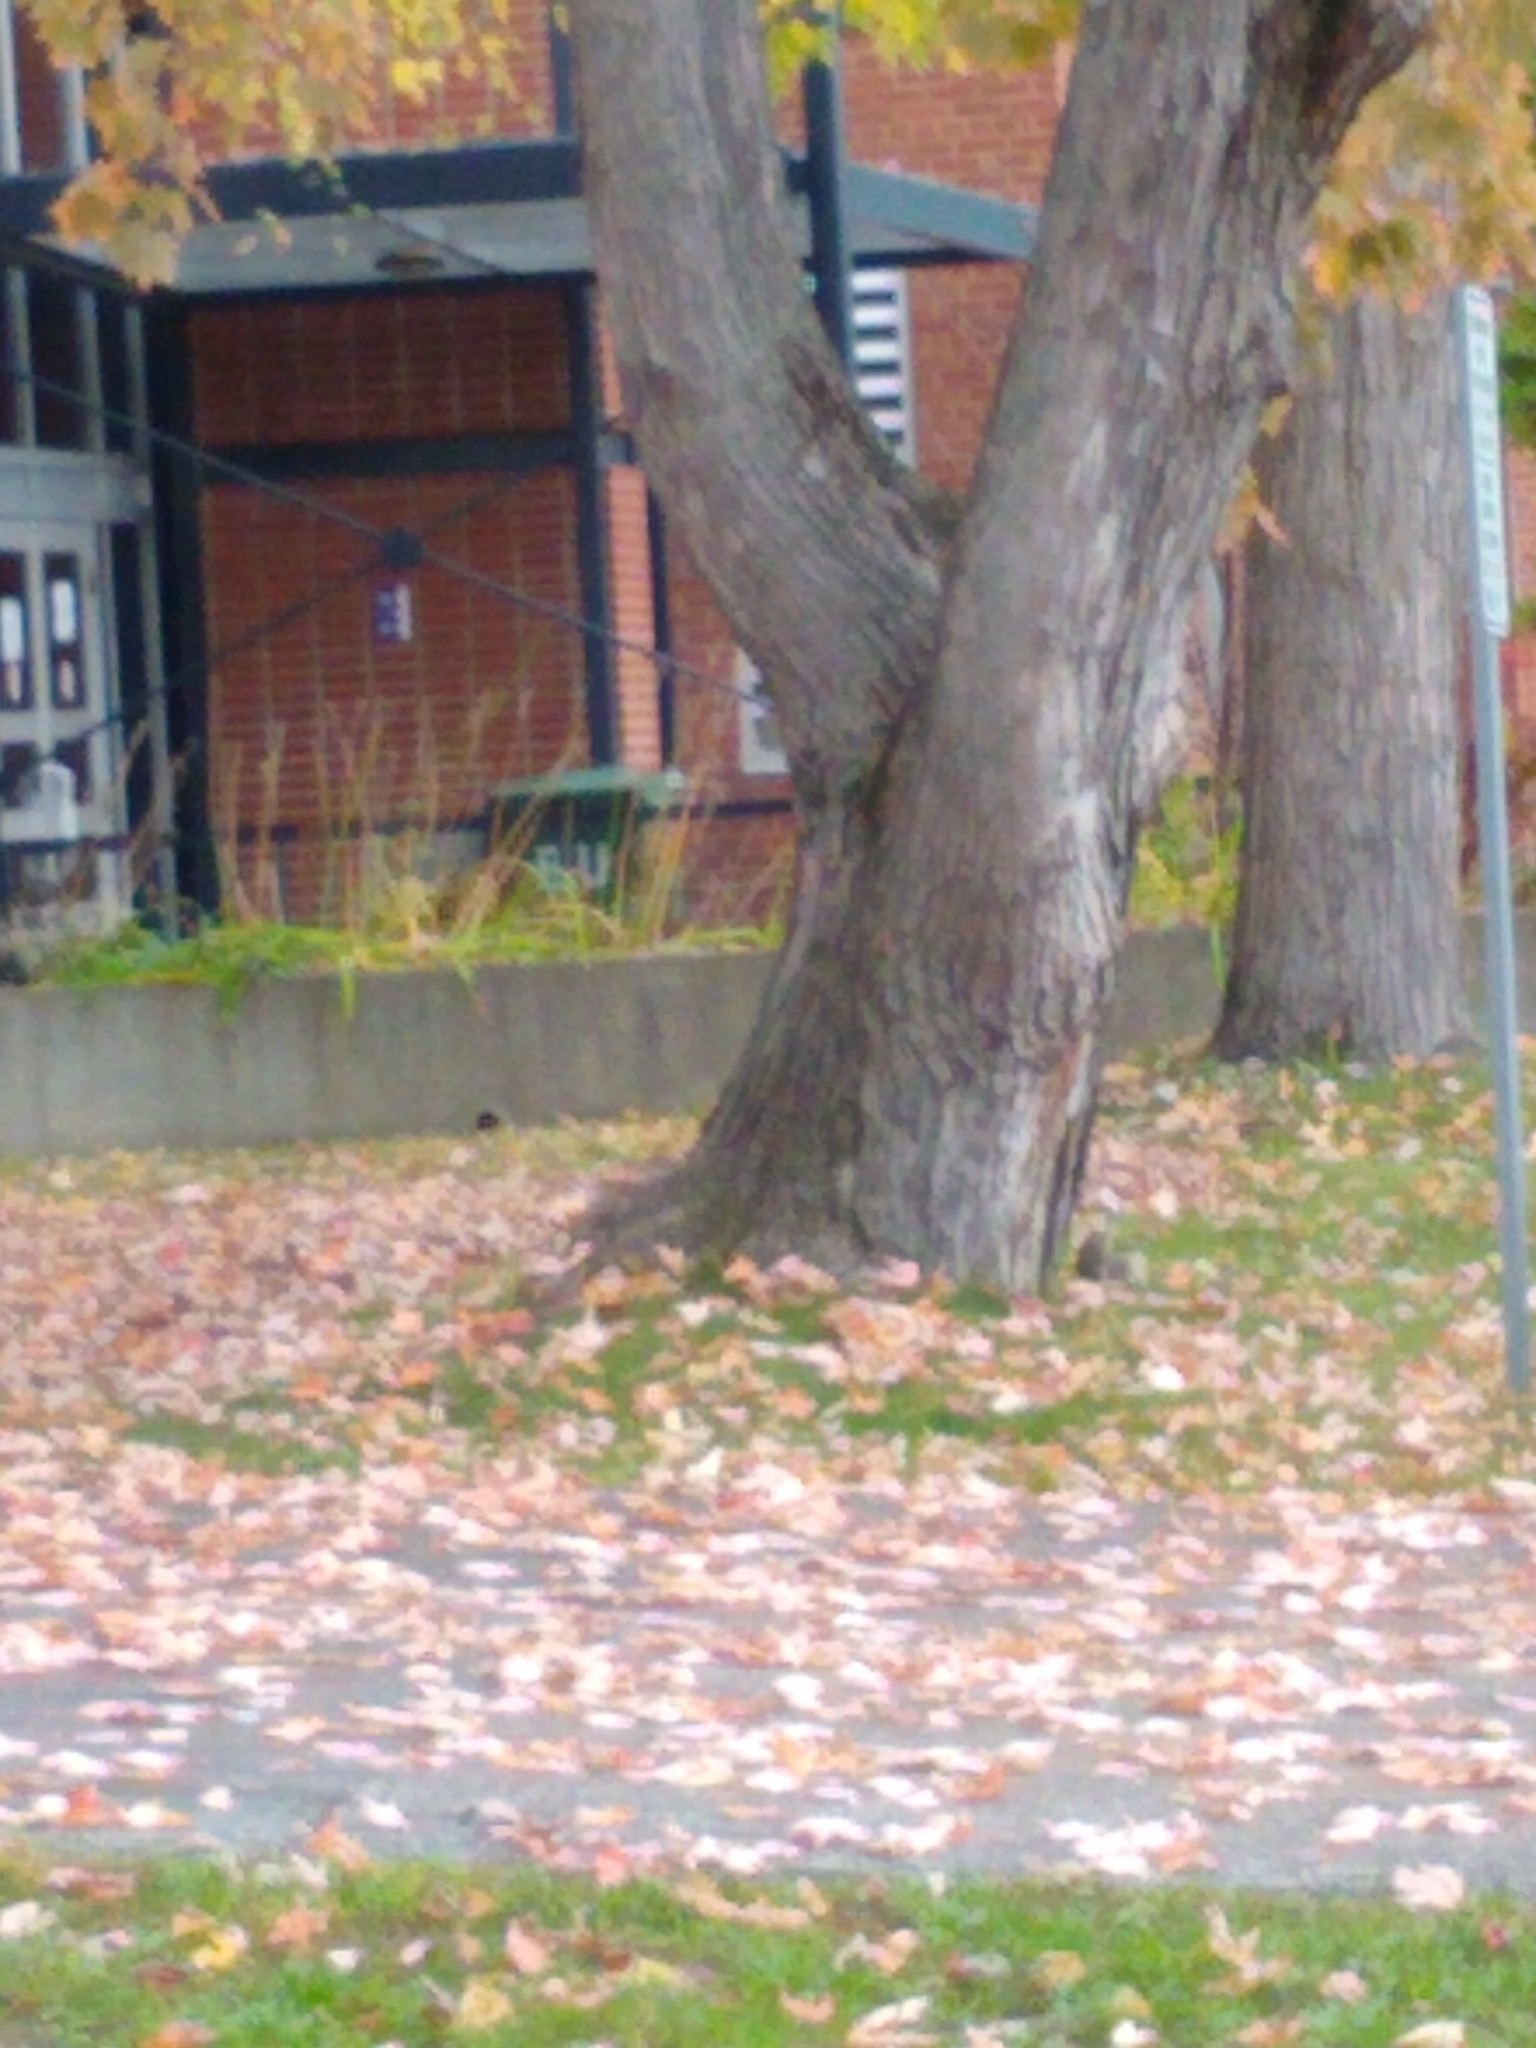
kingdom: Animalia
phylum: Chordata
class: Mammalia
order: Rodentia
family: Sciuridae
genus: Sciurus
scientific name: Sciurus carolinensis
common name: Eastern gray squirrel
